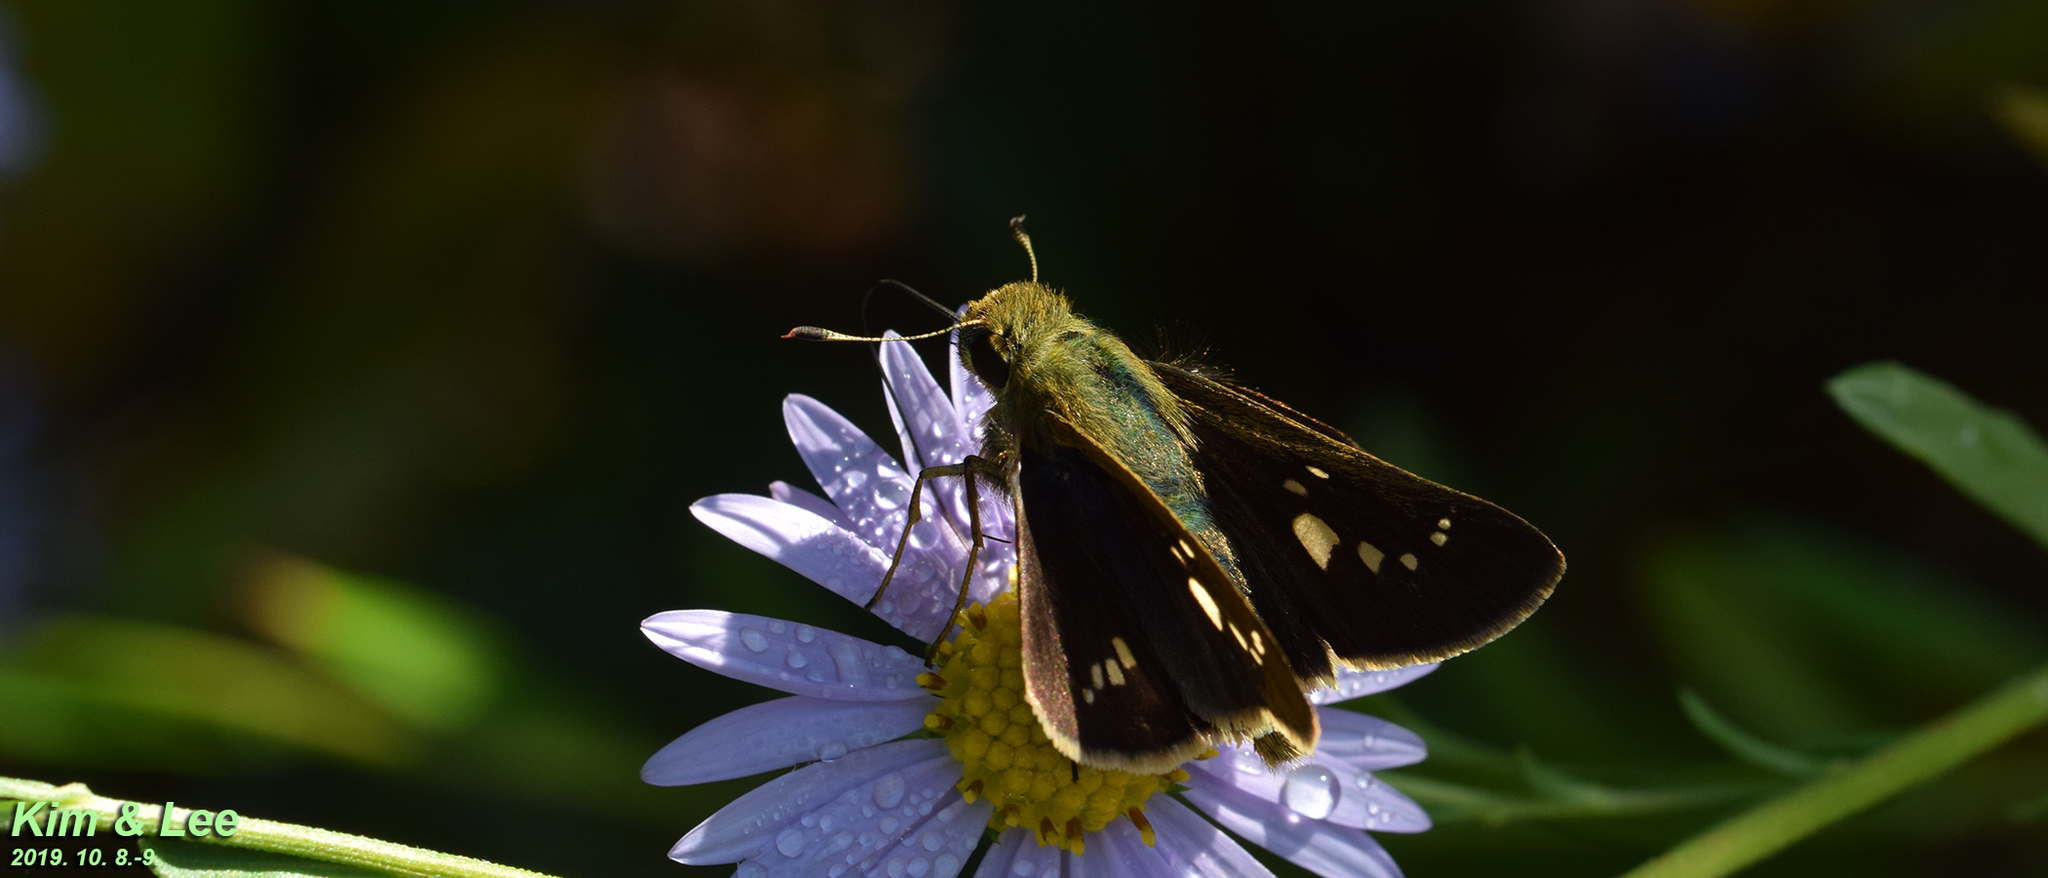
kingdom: Animalia
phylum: Arthropoda
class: Insecta
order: Lepidoptera
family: Hesperiidae
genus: Parnara
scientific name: Parnara guttatus
